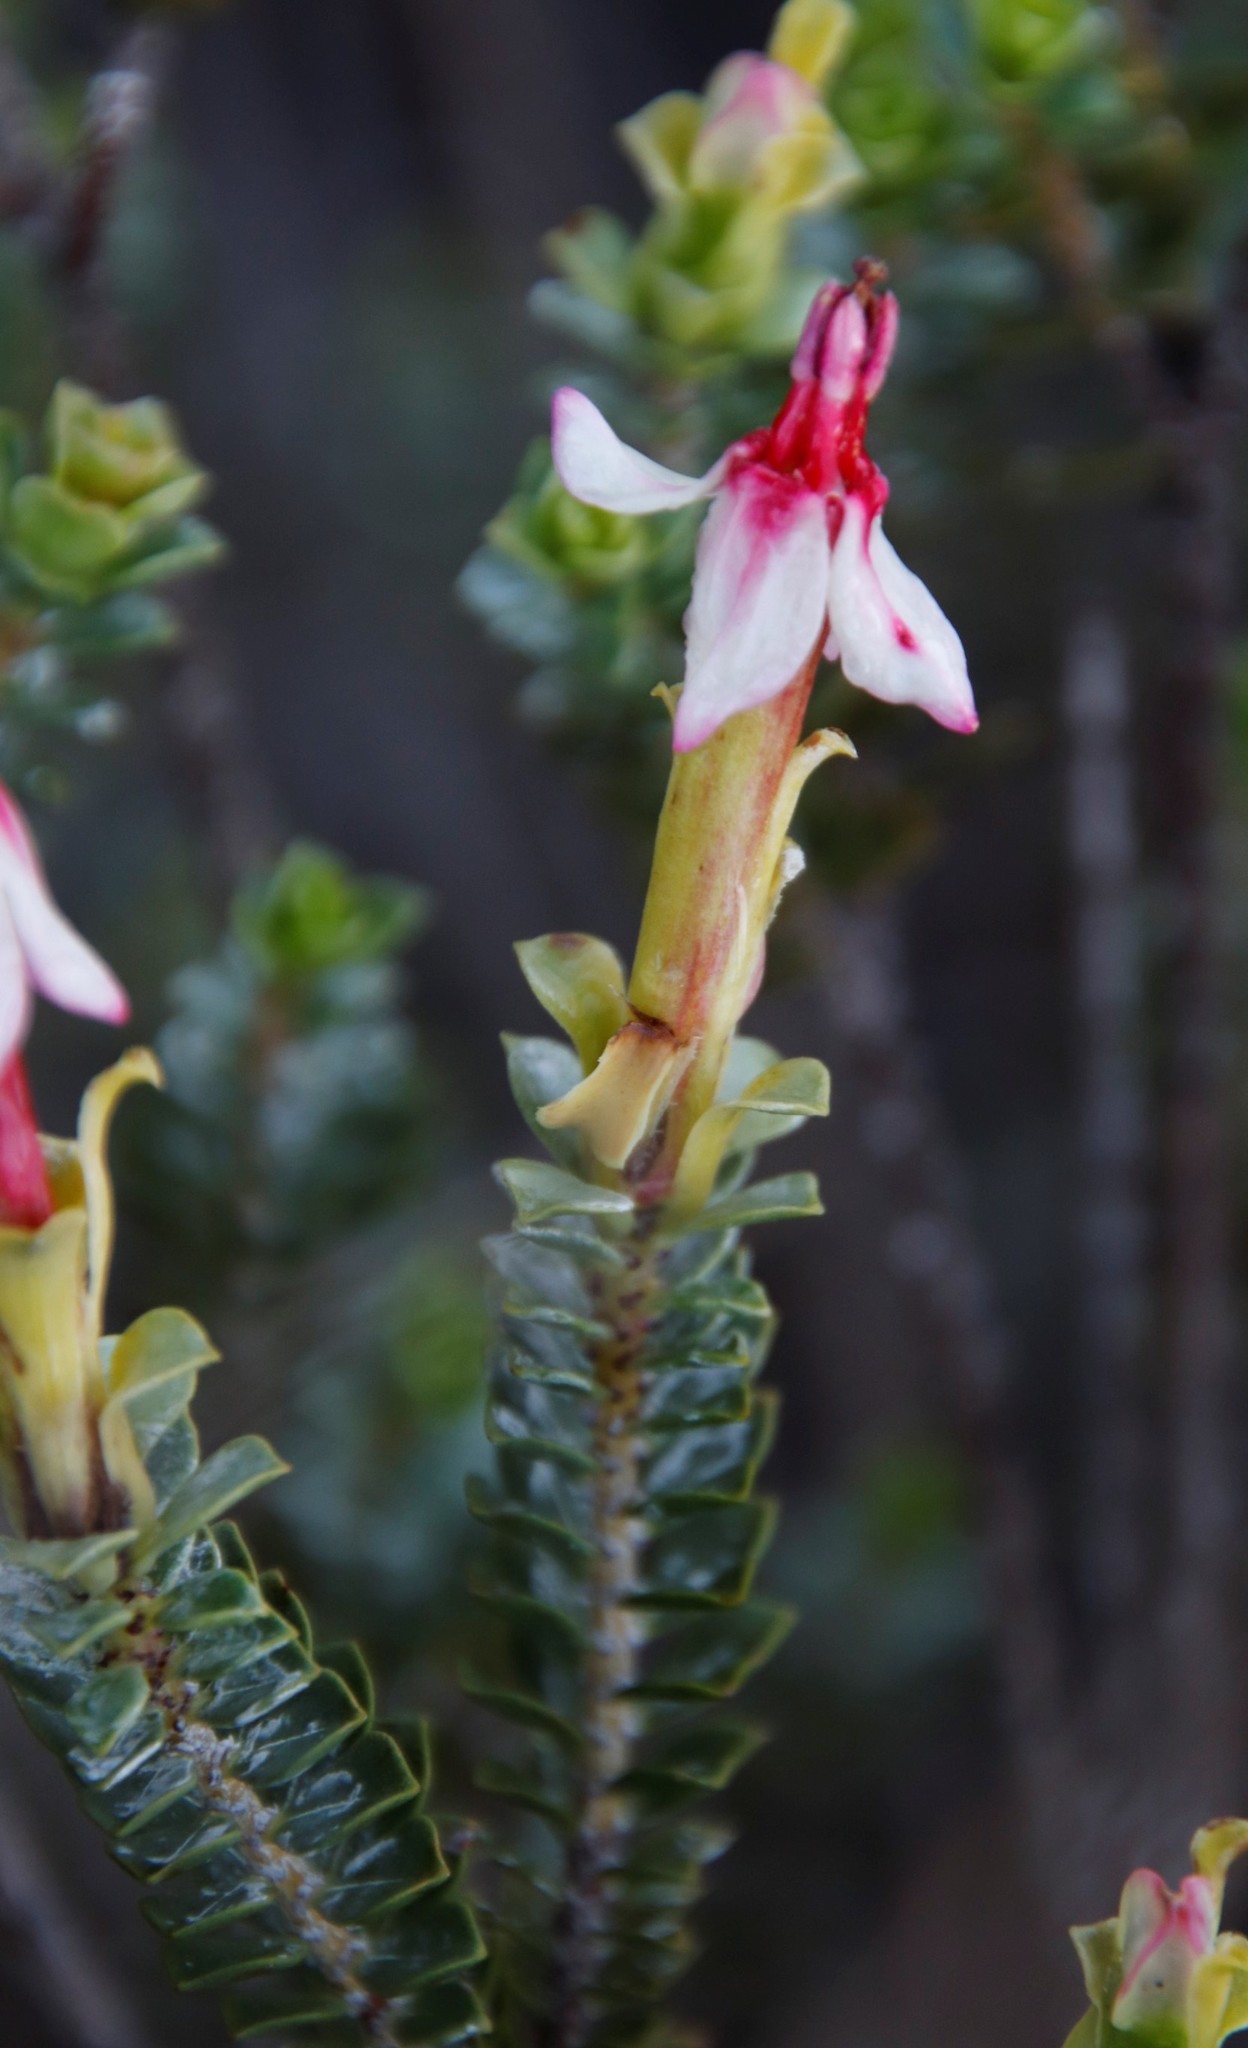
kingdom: Plantae
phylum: Tracheophyta
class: Magnoliopsida
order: Myrtales
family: Penaeaceae
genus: Saltera
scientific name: Saltera sarcocolla
